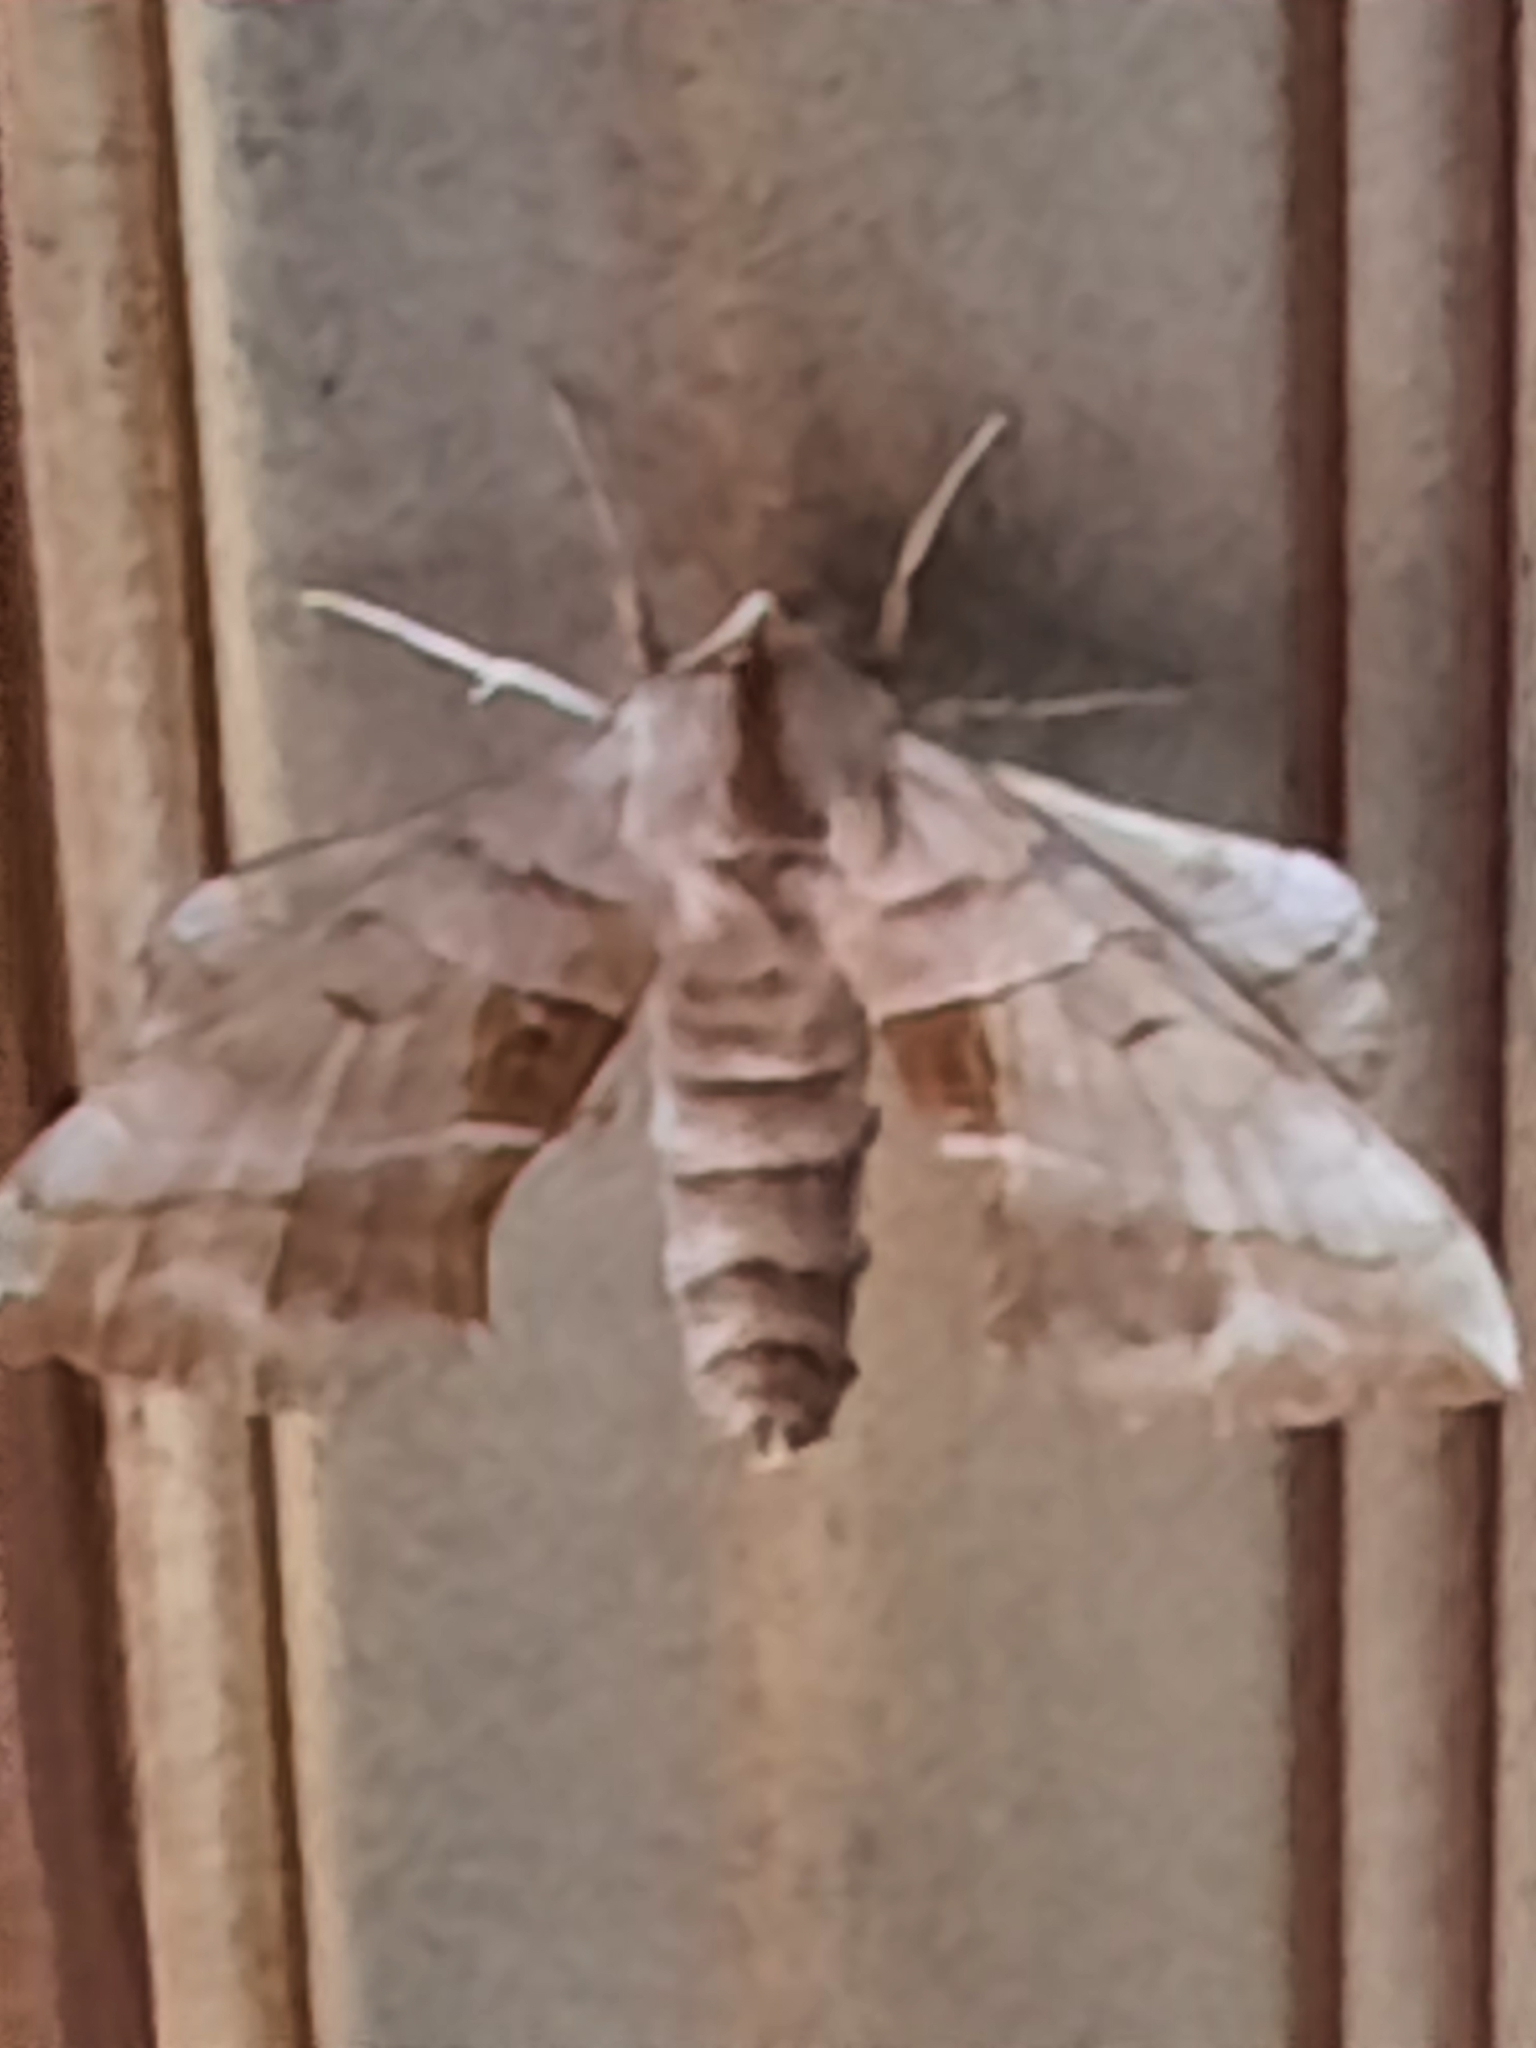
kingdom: Animalia
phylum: Arthropoda
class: Insecta
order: Lepidoptera
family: Sphingidae
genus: Amorpha
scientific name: Amorpha juglandis
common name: Walnut sphinx
